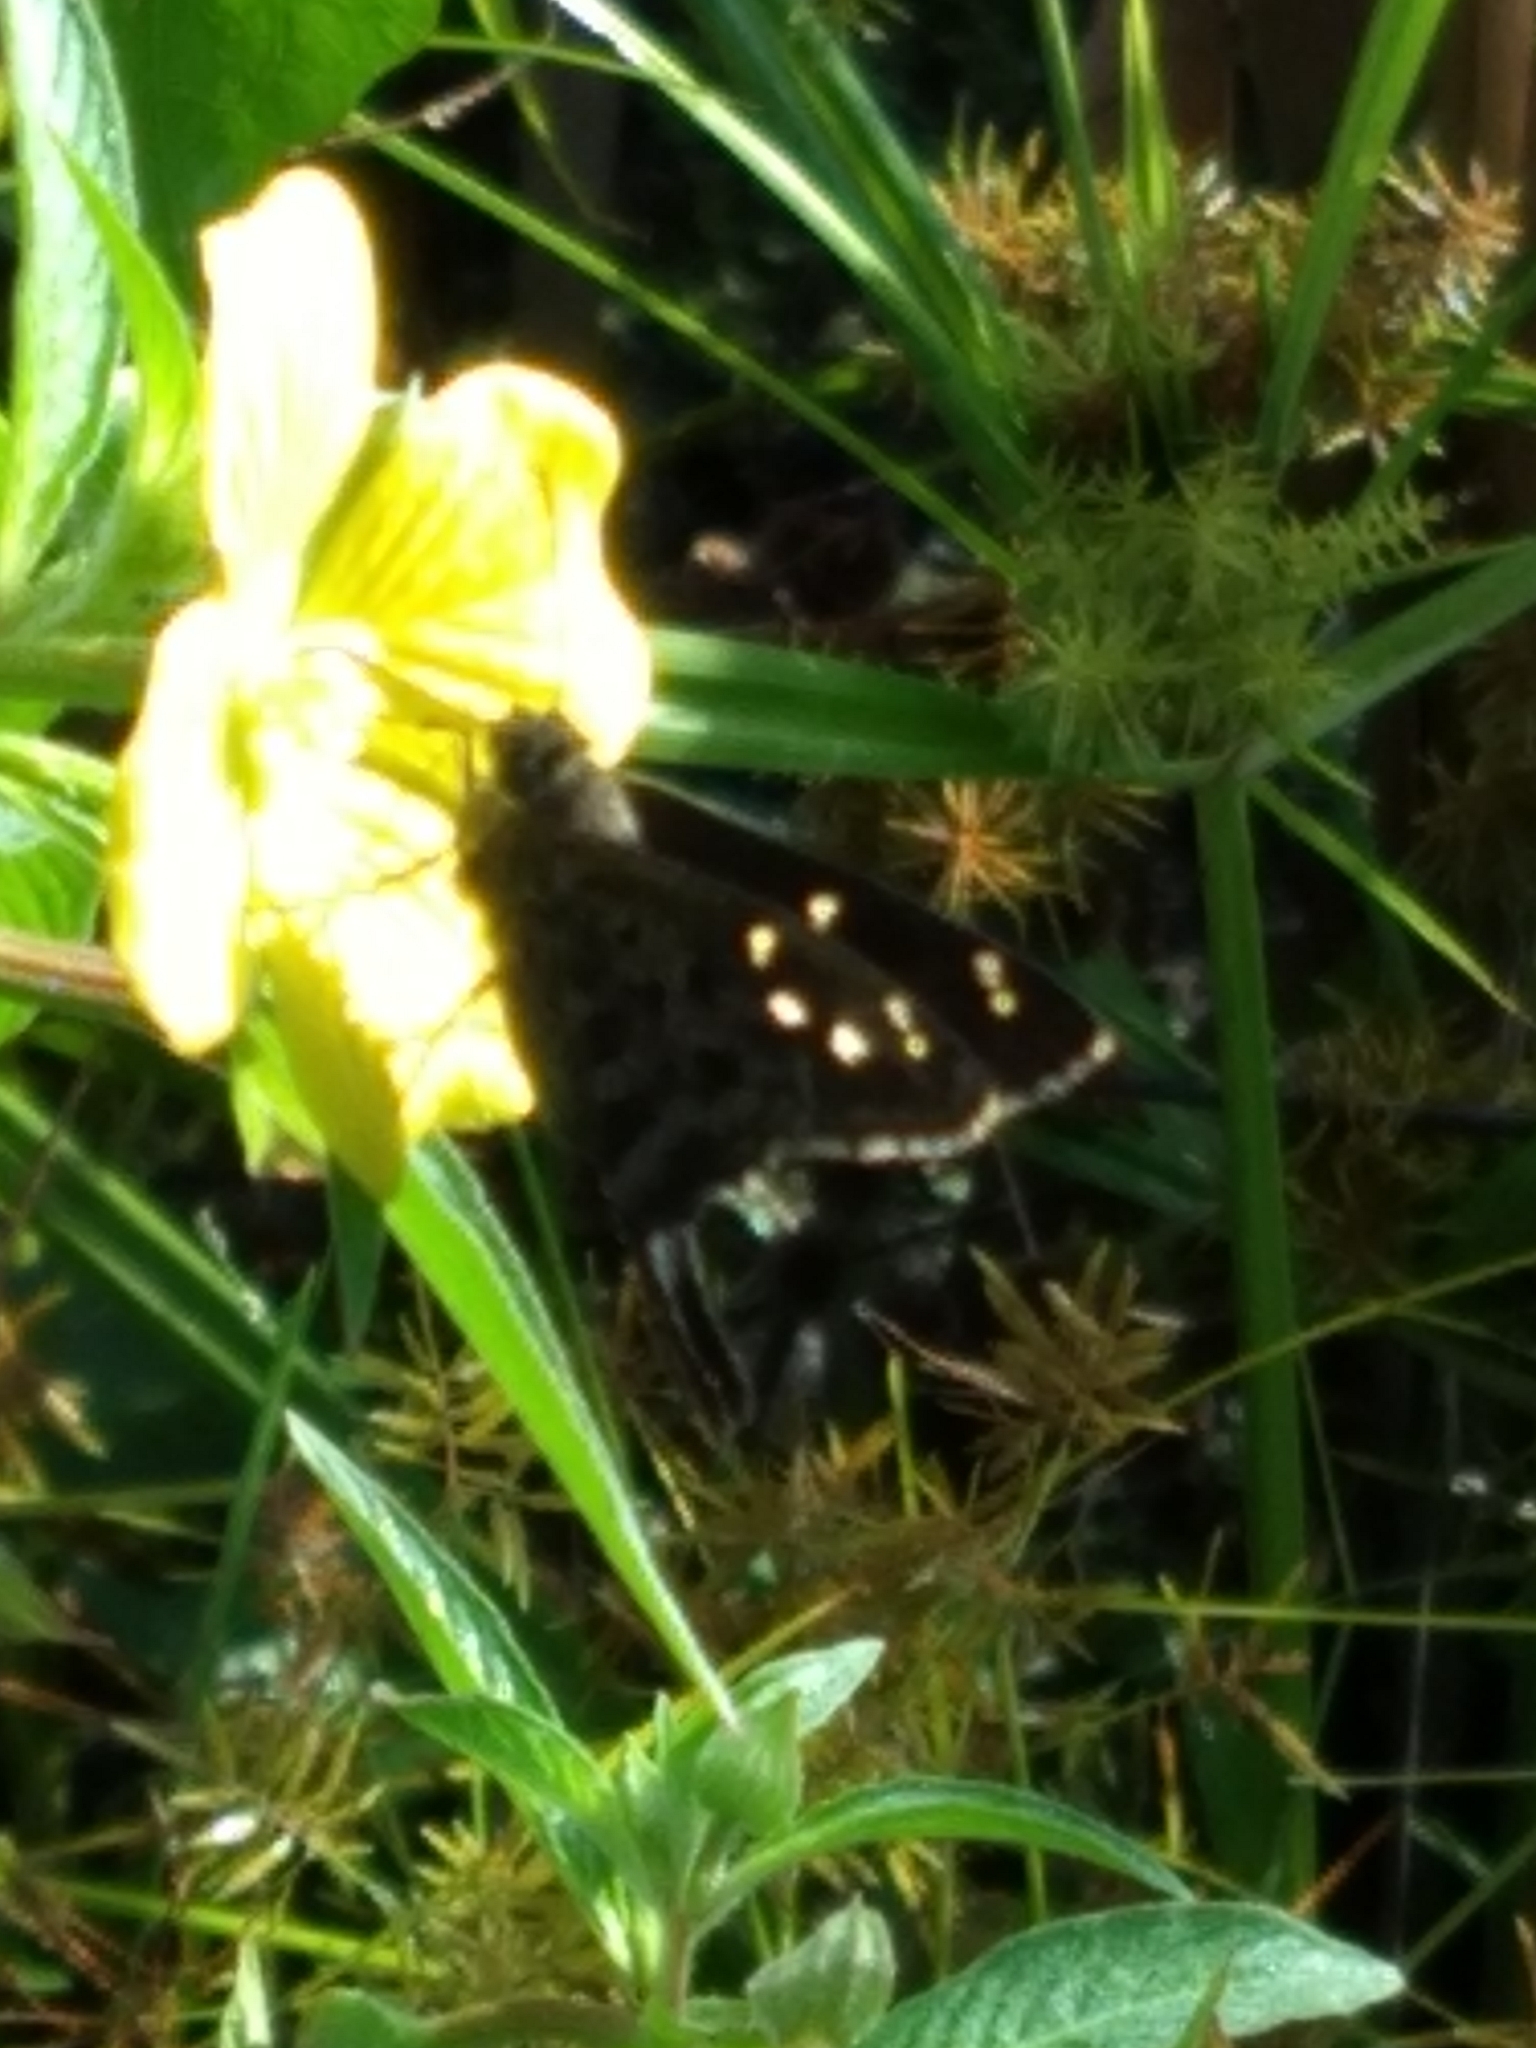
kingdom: Plantae
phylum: Tracheophyta
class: Magnoliopsida
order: Myrtales
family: Onagraceae
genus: Ludwigia
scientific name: Ludwigia octovalvis
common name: Water-primrose
